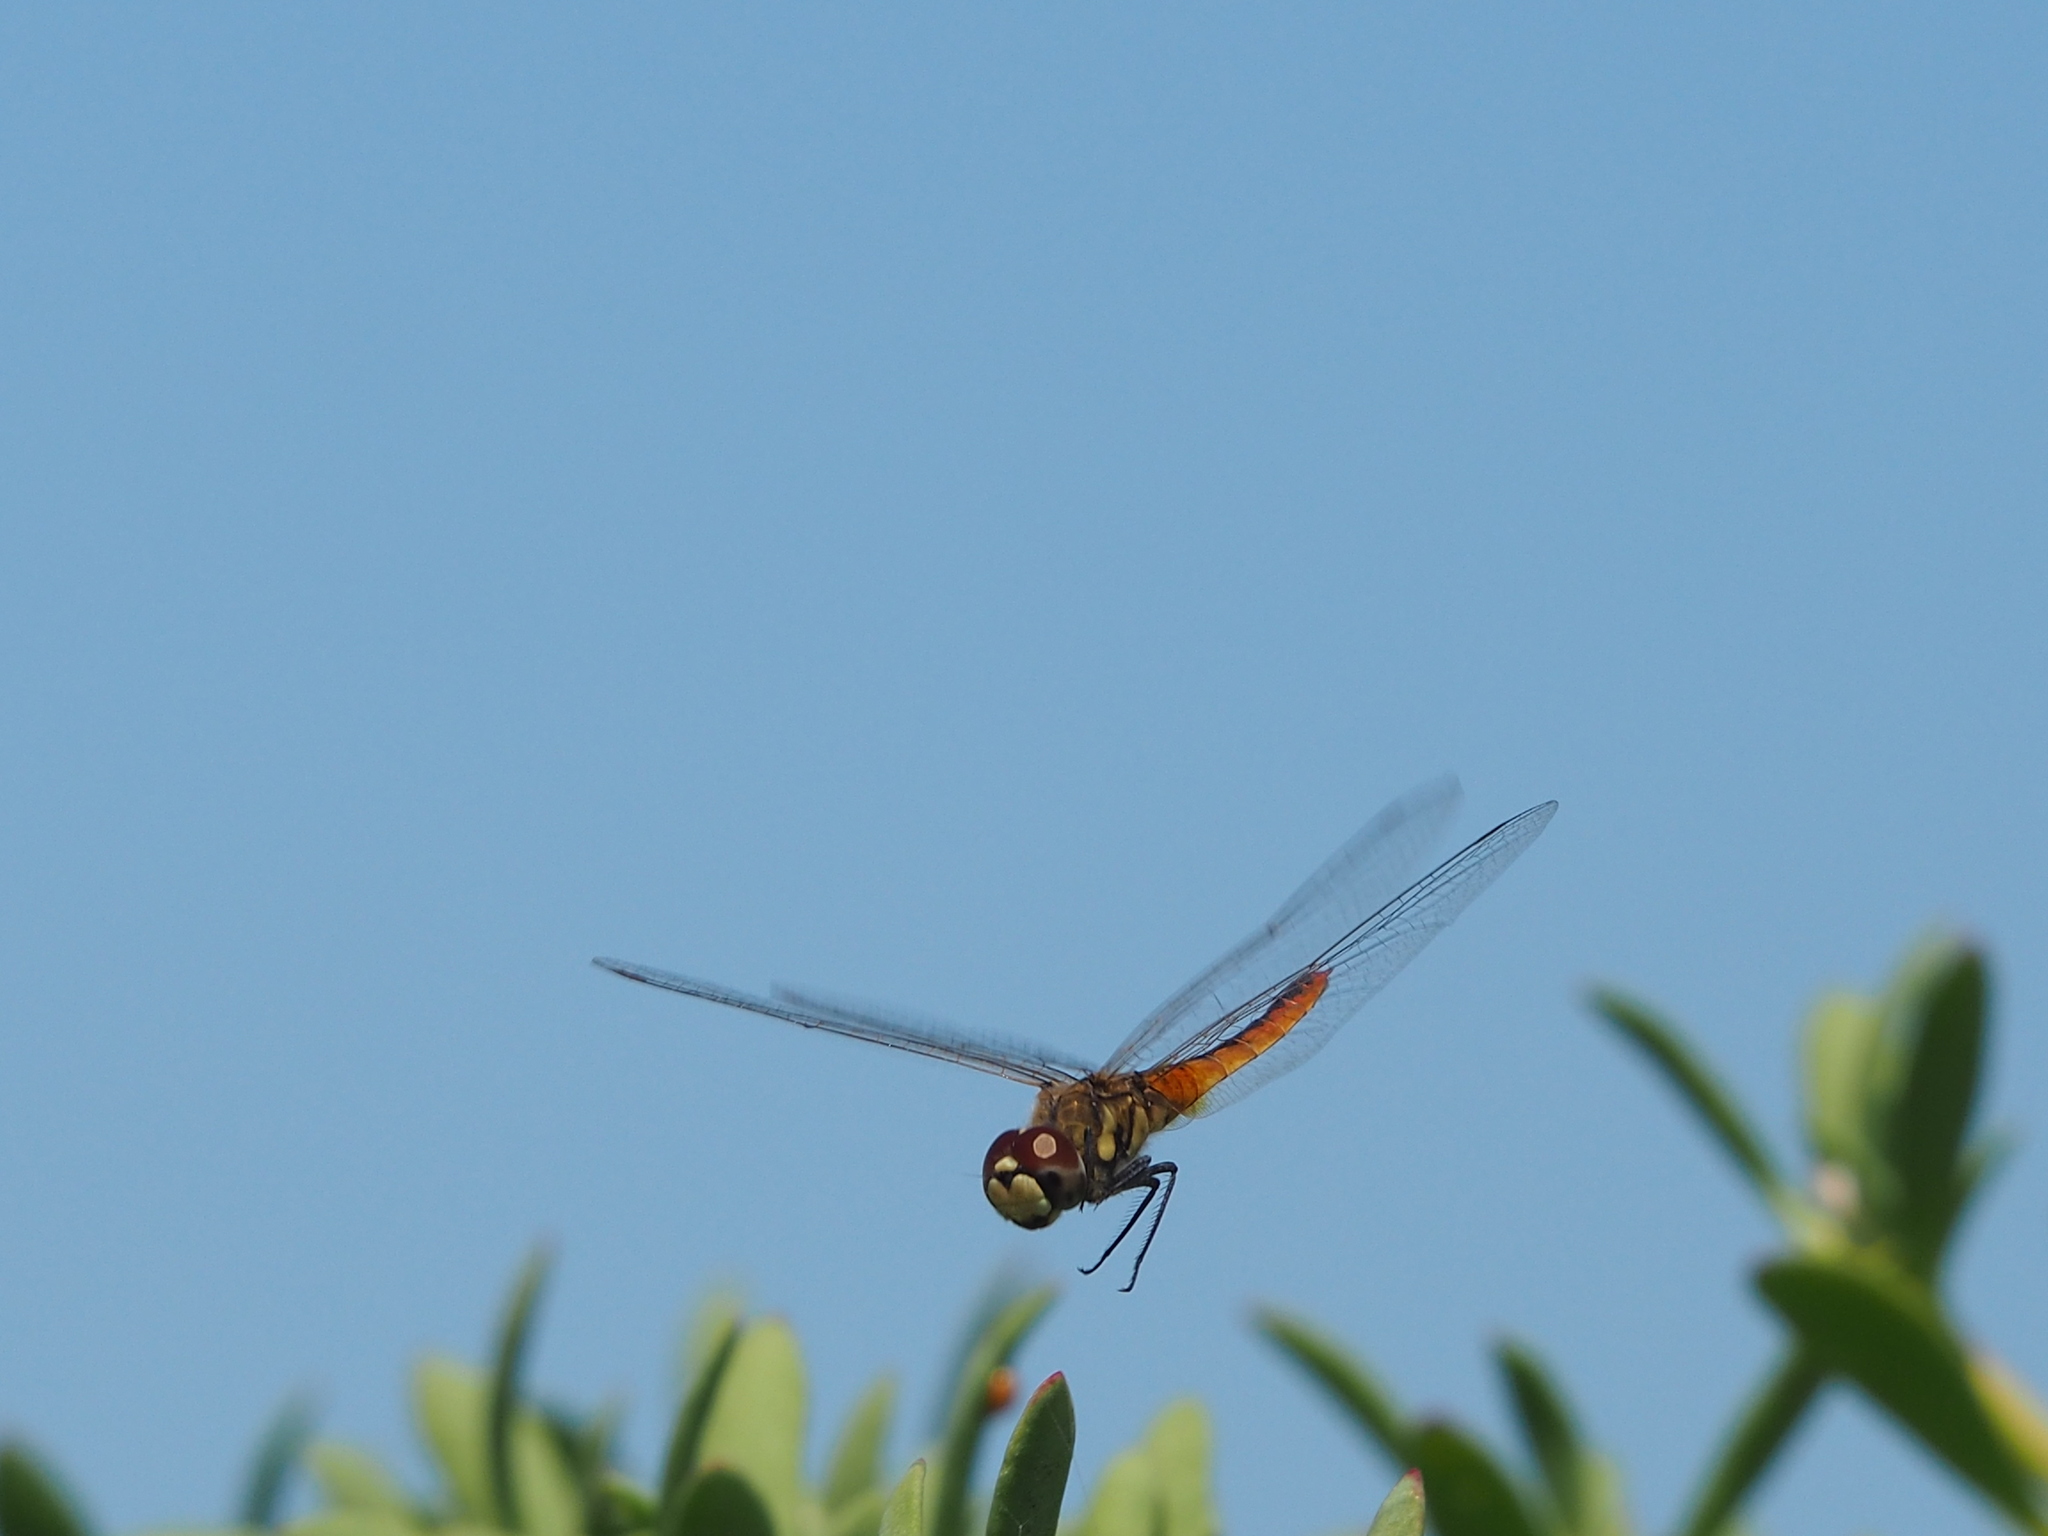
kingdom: Animalia
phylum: Arthropoda
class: Insecta
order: Odonata
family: Libellulidae
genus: Macrodiplax
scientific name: Macrodiplax cora
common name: Coastal glider
